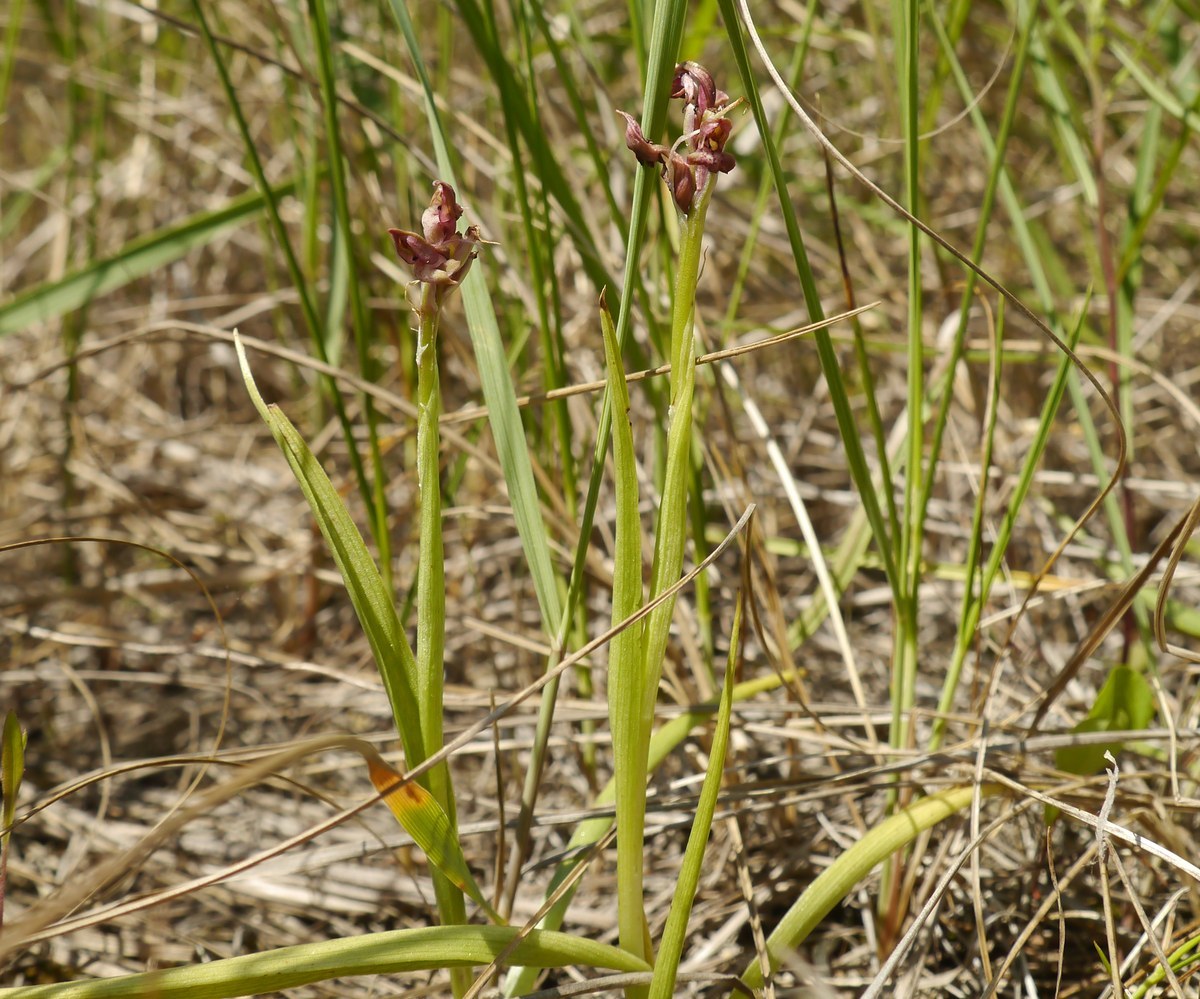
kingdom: Plantae
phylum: Tracheophyta
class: Liliopsida
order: Asparagales
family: Orchidaceae
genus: Anacamptis
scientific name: Anacamptis coriophora
